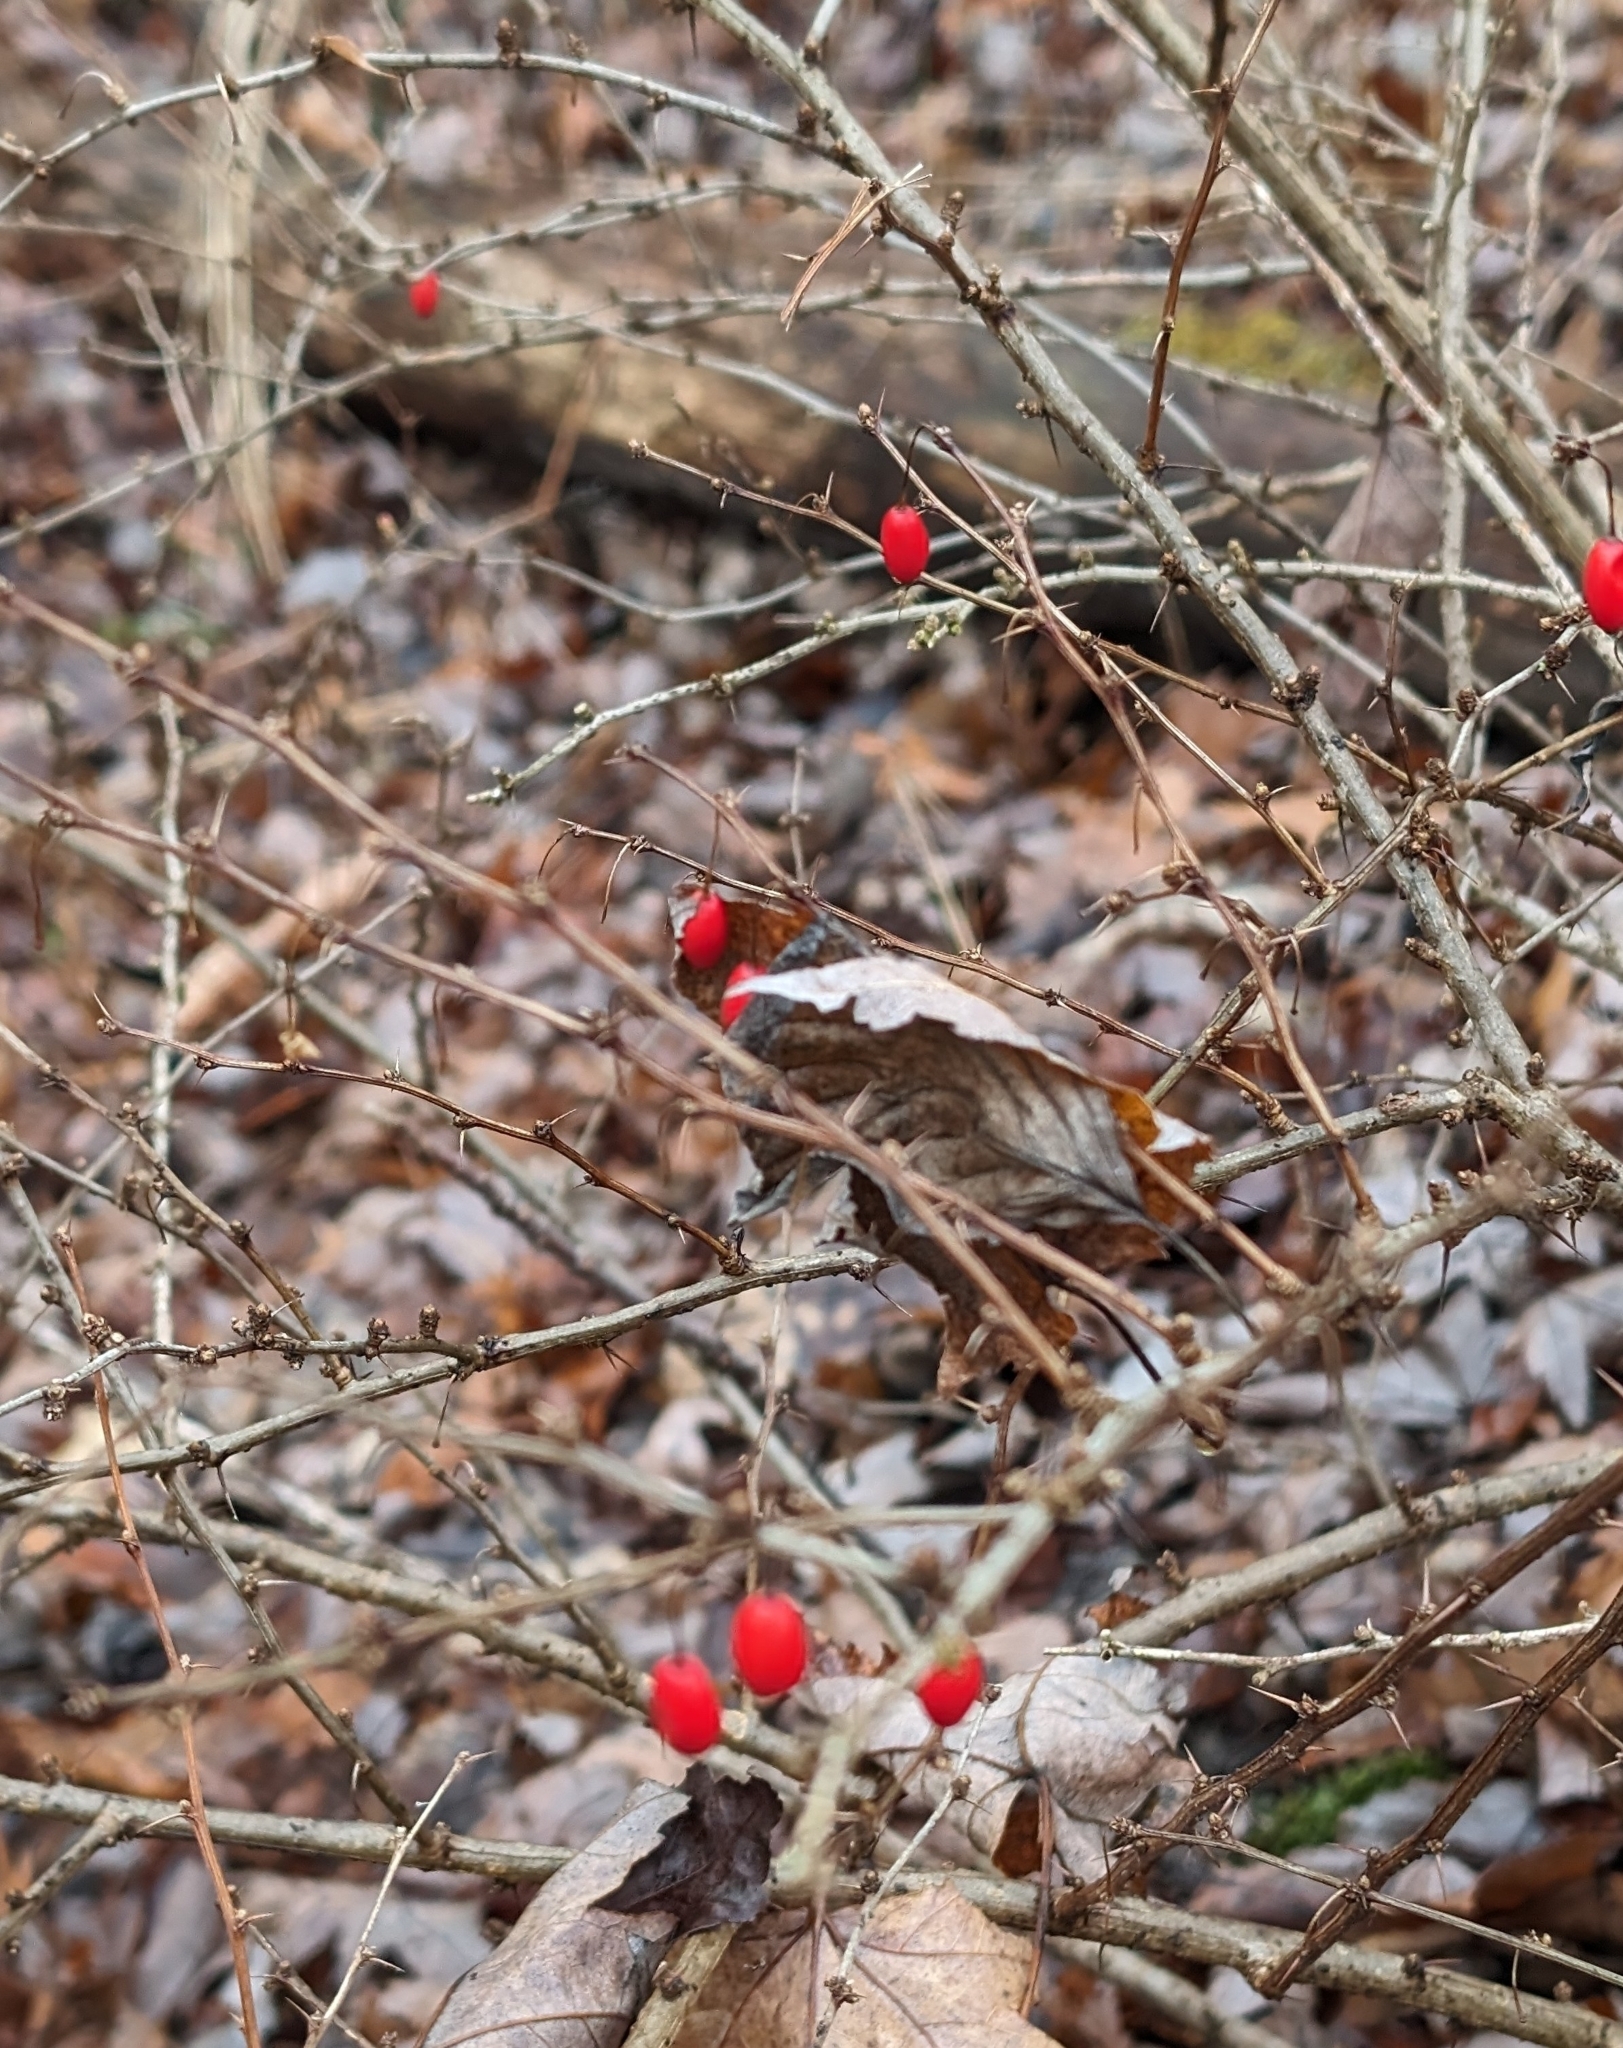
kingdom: Plantae
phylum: Tracheophyta
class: Magnoliopsida
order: Ranunculales
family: Berberidaceae
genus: Berberis
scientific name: Berberis thunbergii
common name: Japanese barberry
